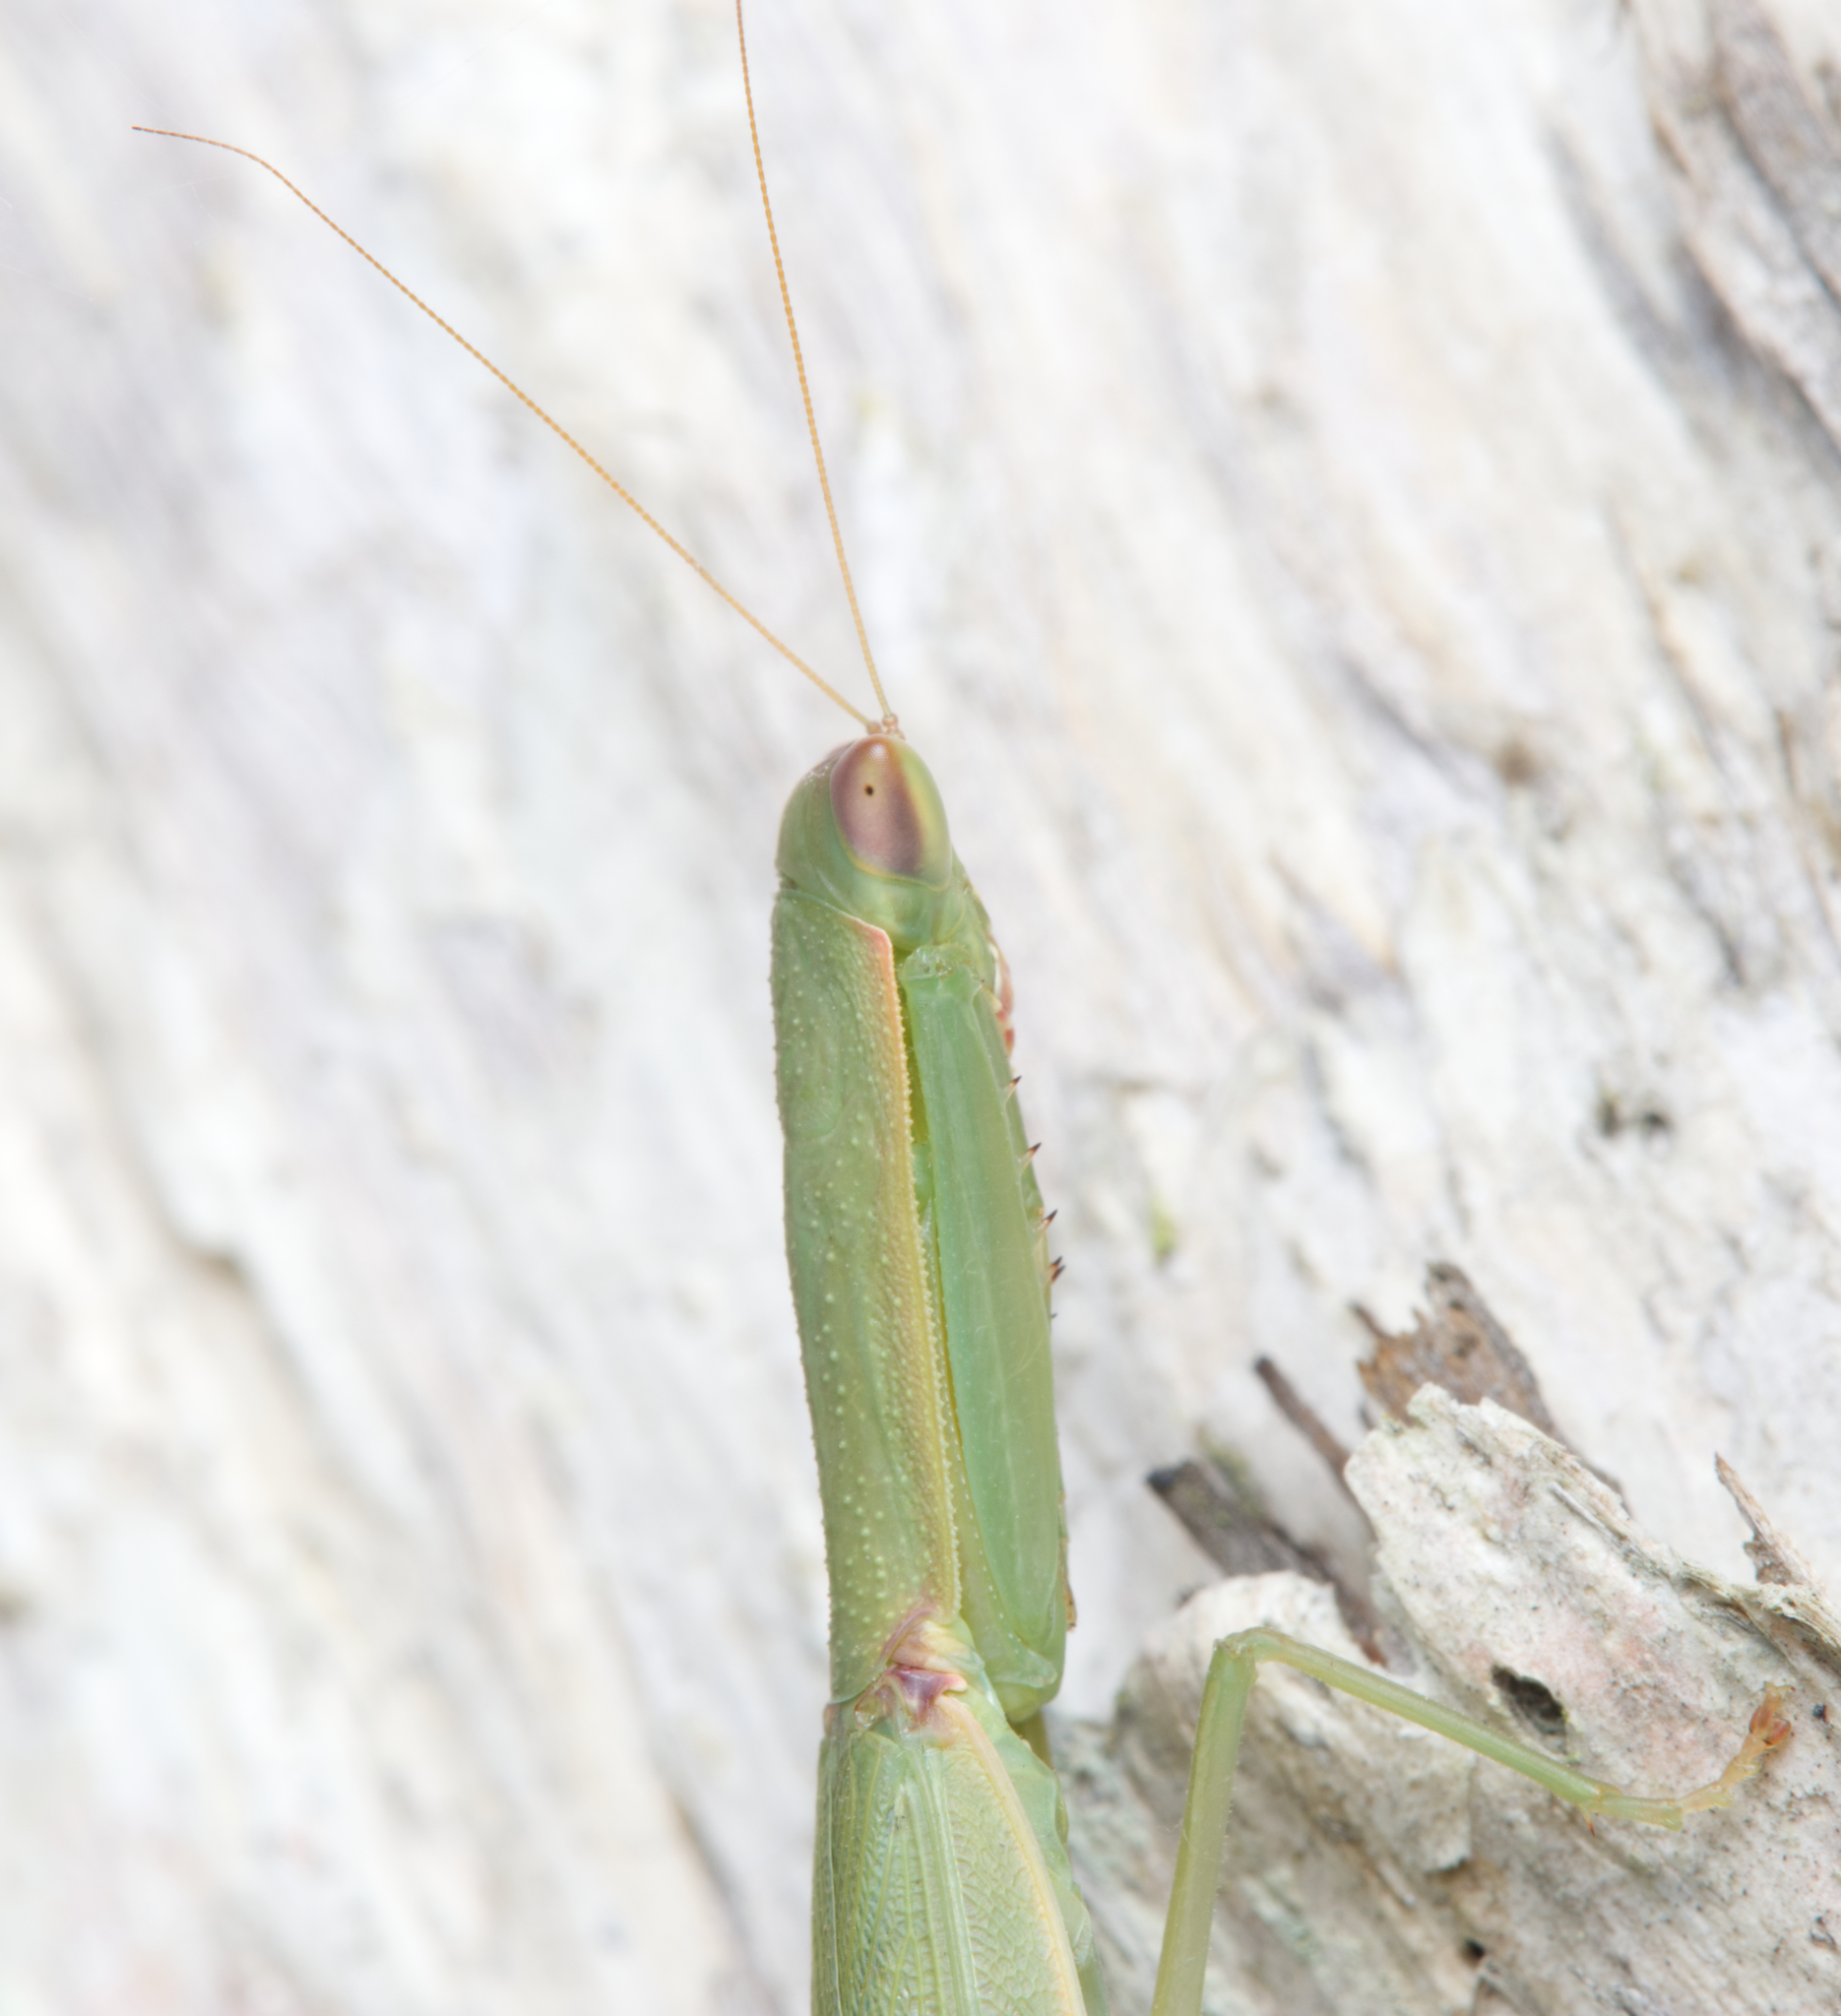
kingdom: Animalia
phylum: Arthropoda
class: Insecta
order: Mantodea
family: Mantidae
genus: Orthodera
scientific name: Orthodera gracilis
